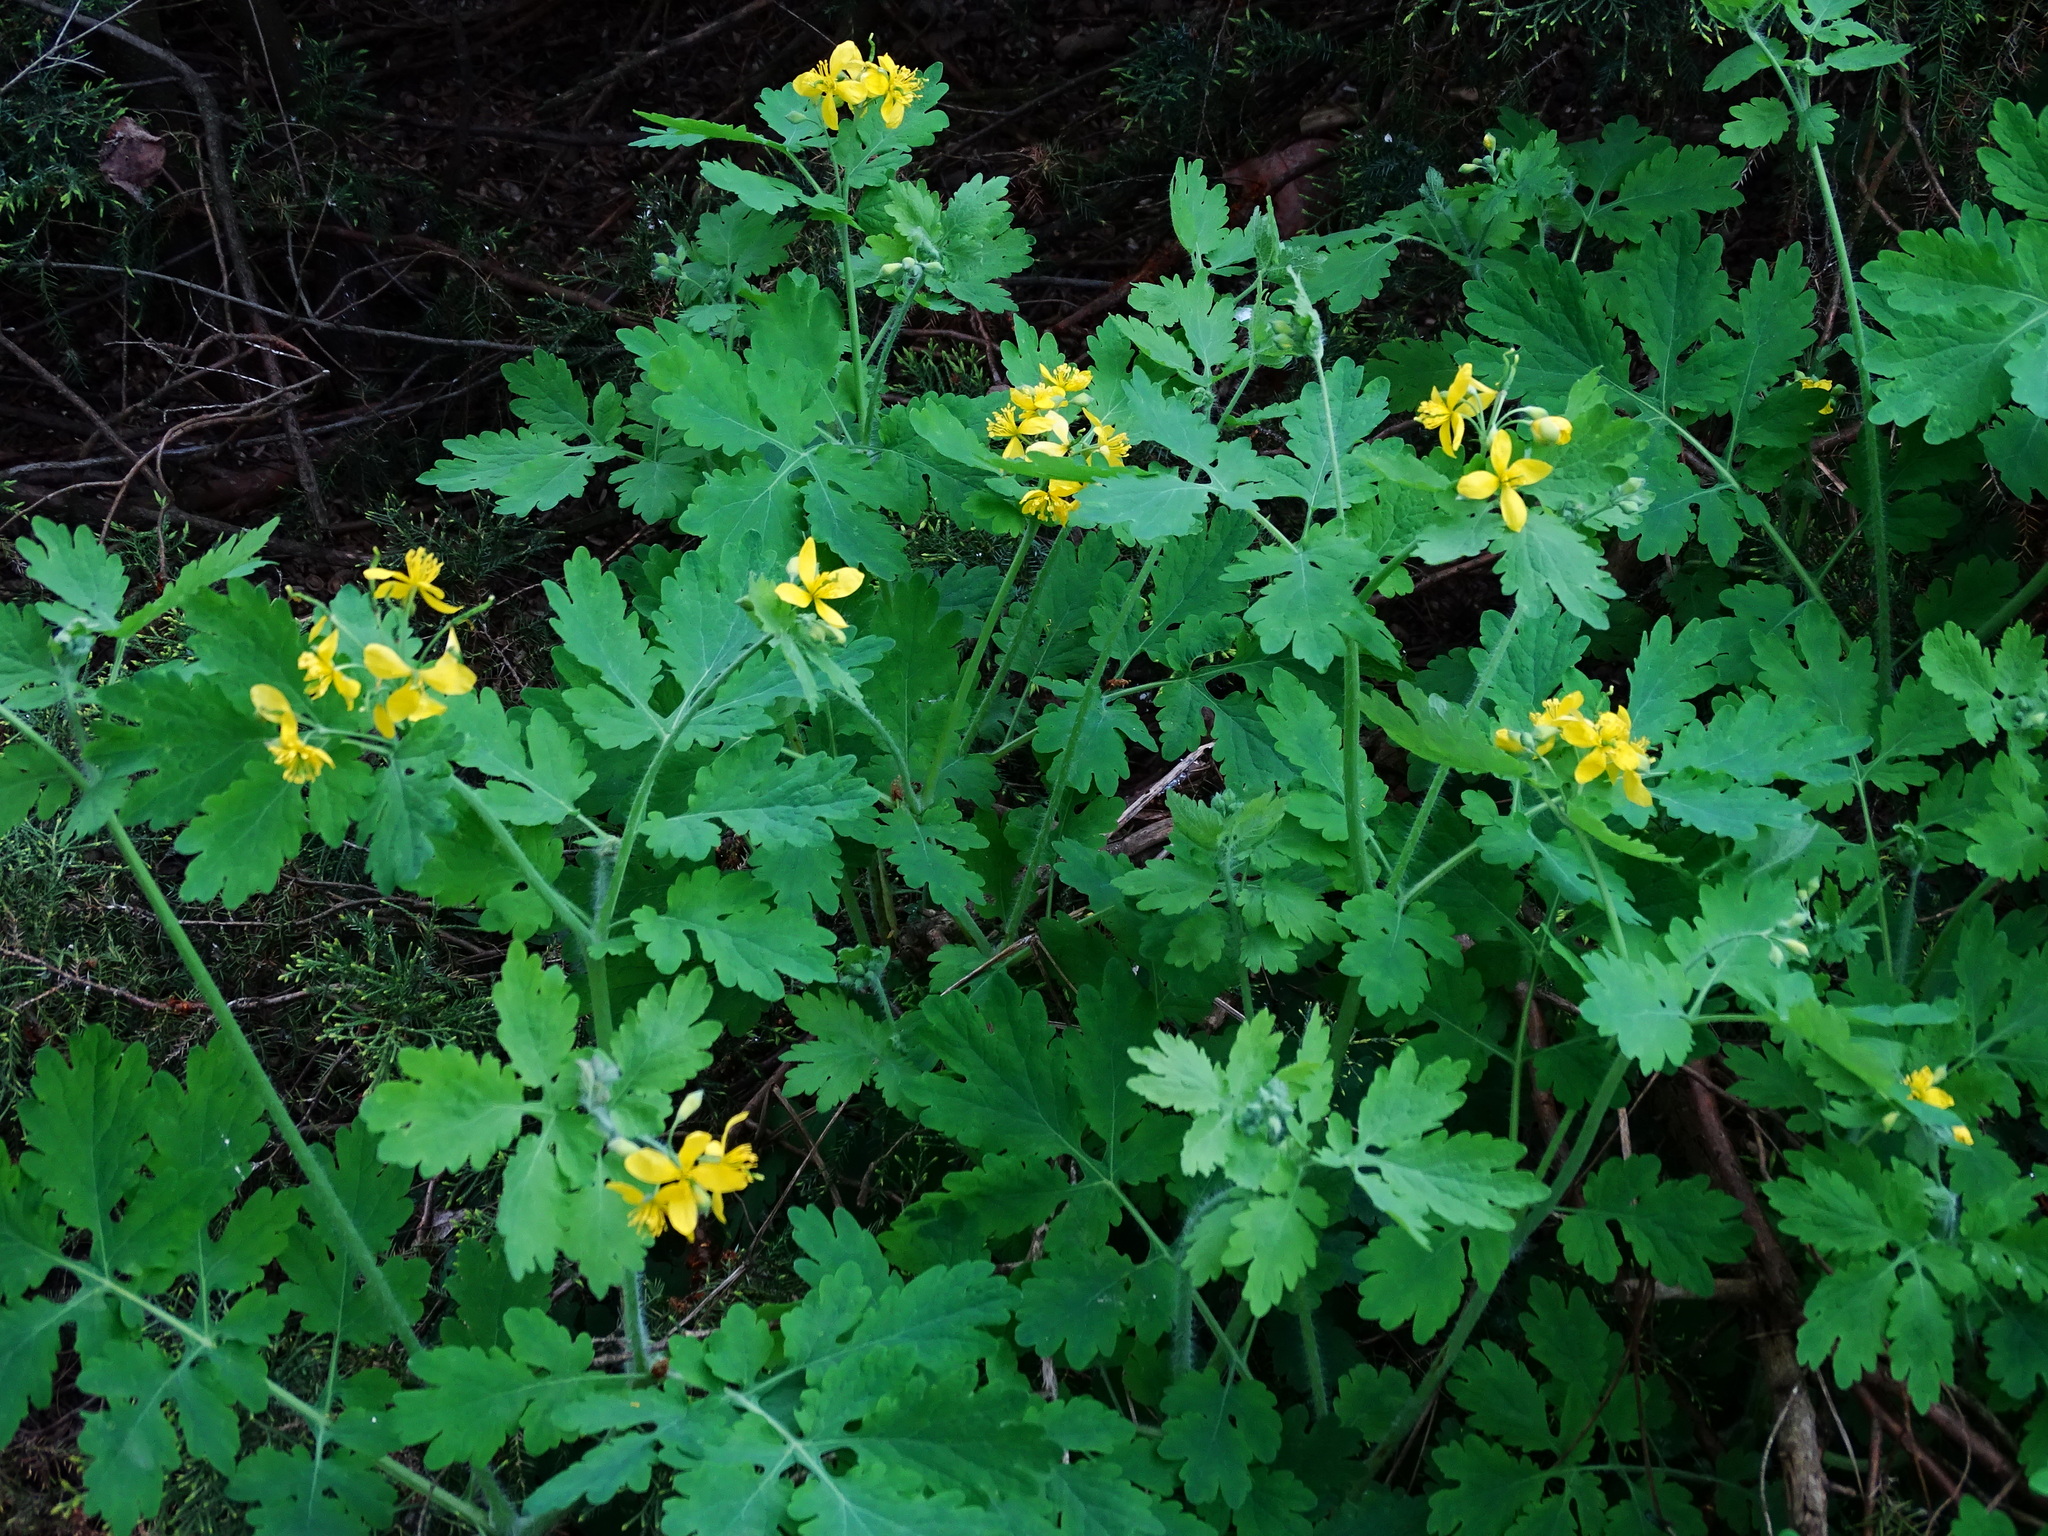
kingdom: Plantae
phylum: Tracheophyta
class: Magnoliopsida
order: Ranunculales
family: Papaveraceae
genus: Chelidonium
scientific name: Chelidonium majus
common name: Greater celandine
